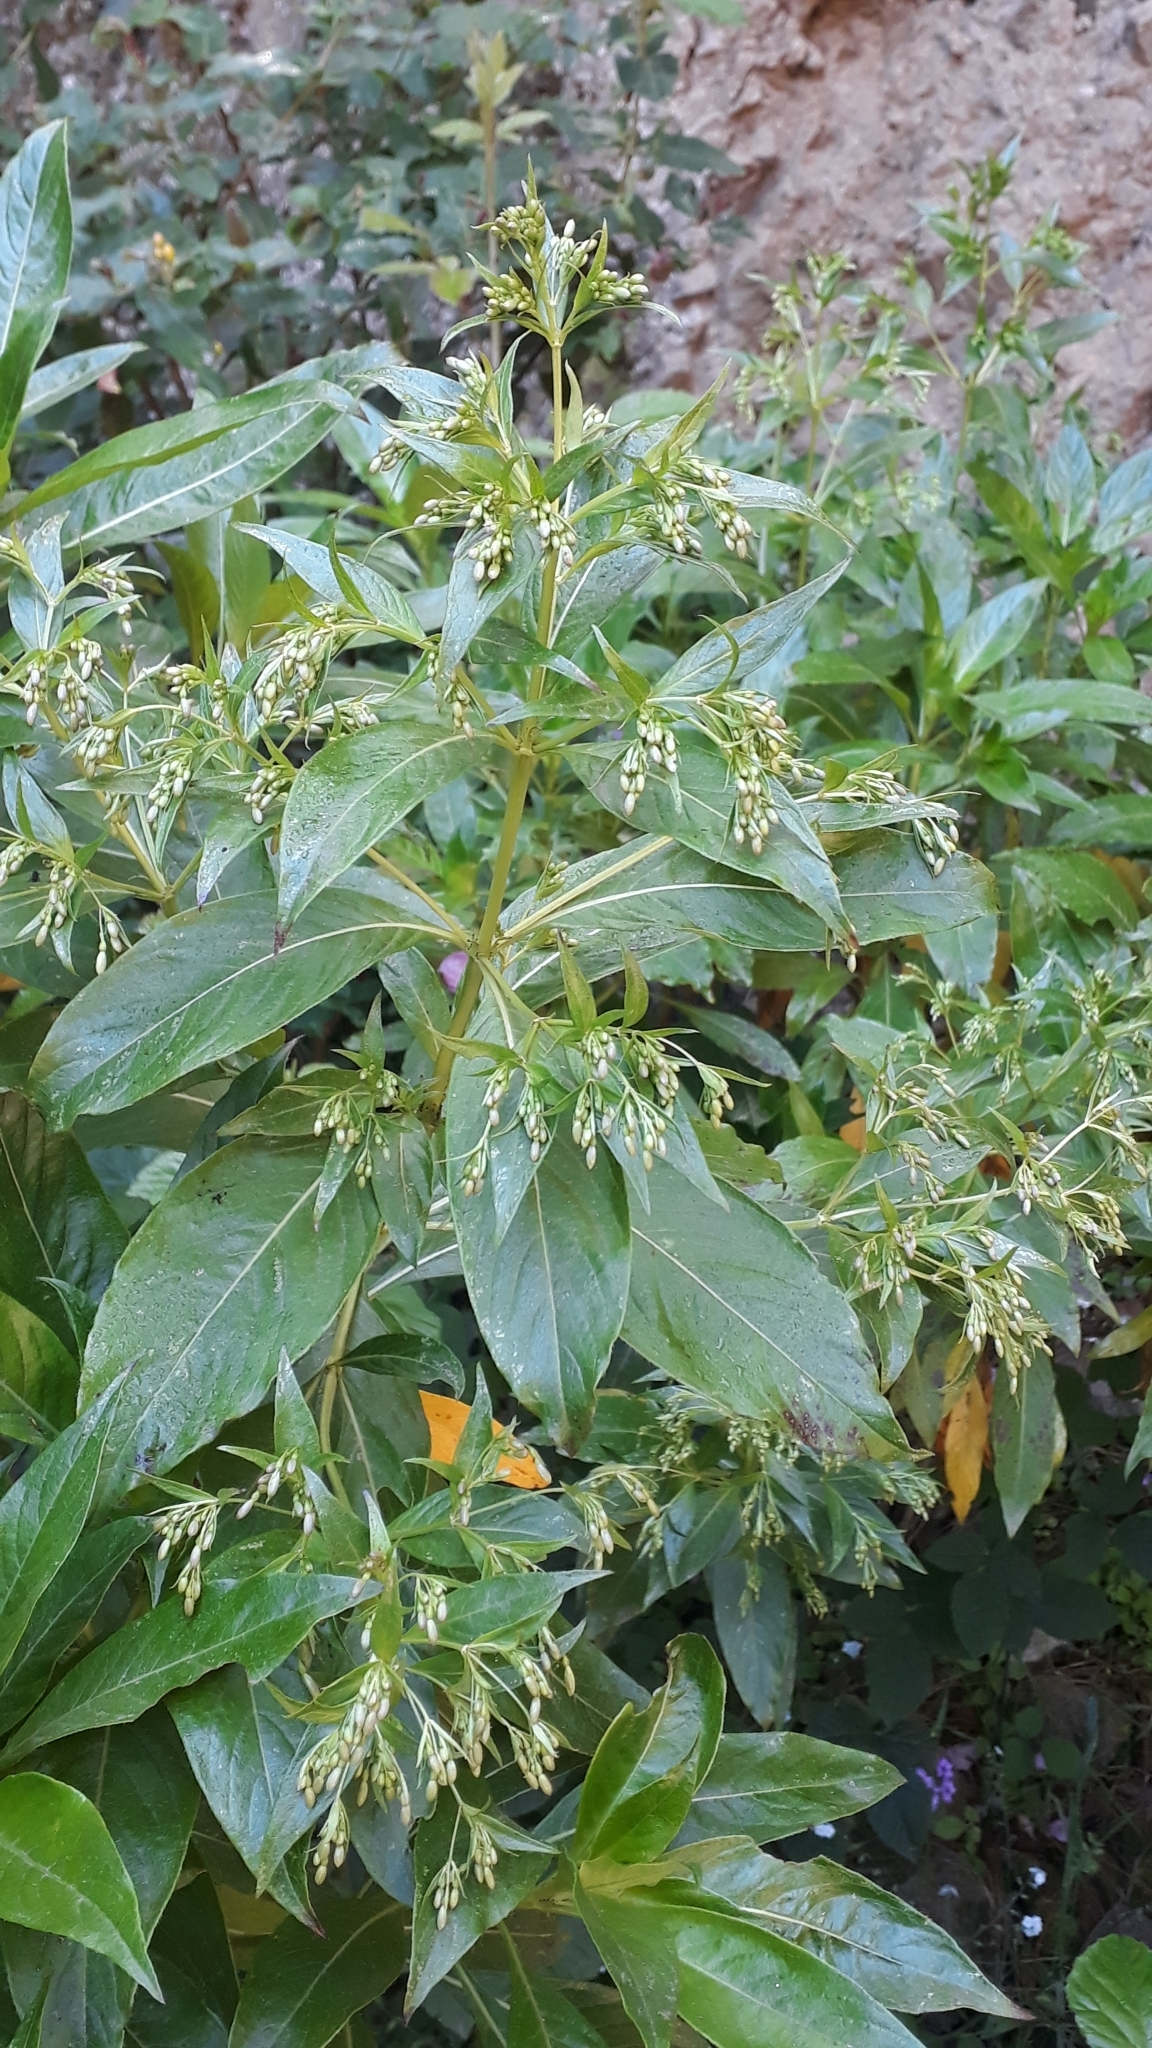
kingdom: Plantae
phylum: Tracheophyta
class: Magnoliopsida
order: Gentianales
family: Rubiaceae
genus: Phyllis
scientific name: Phyllis nobla
